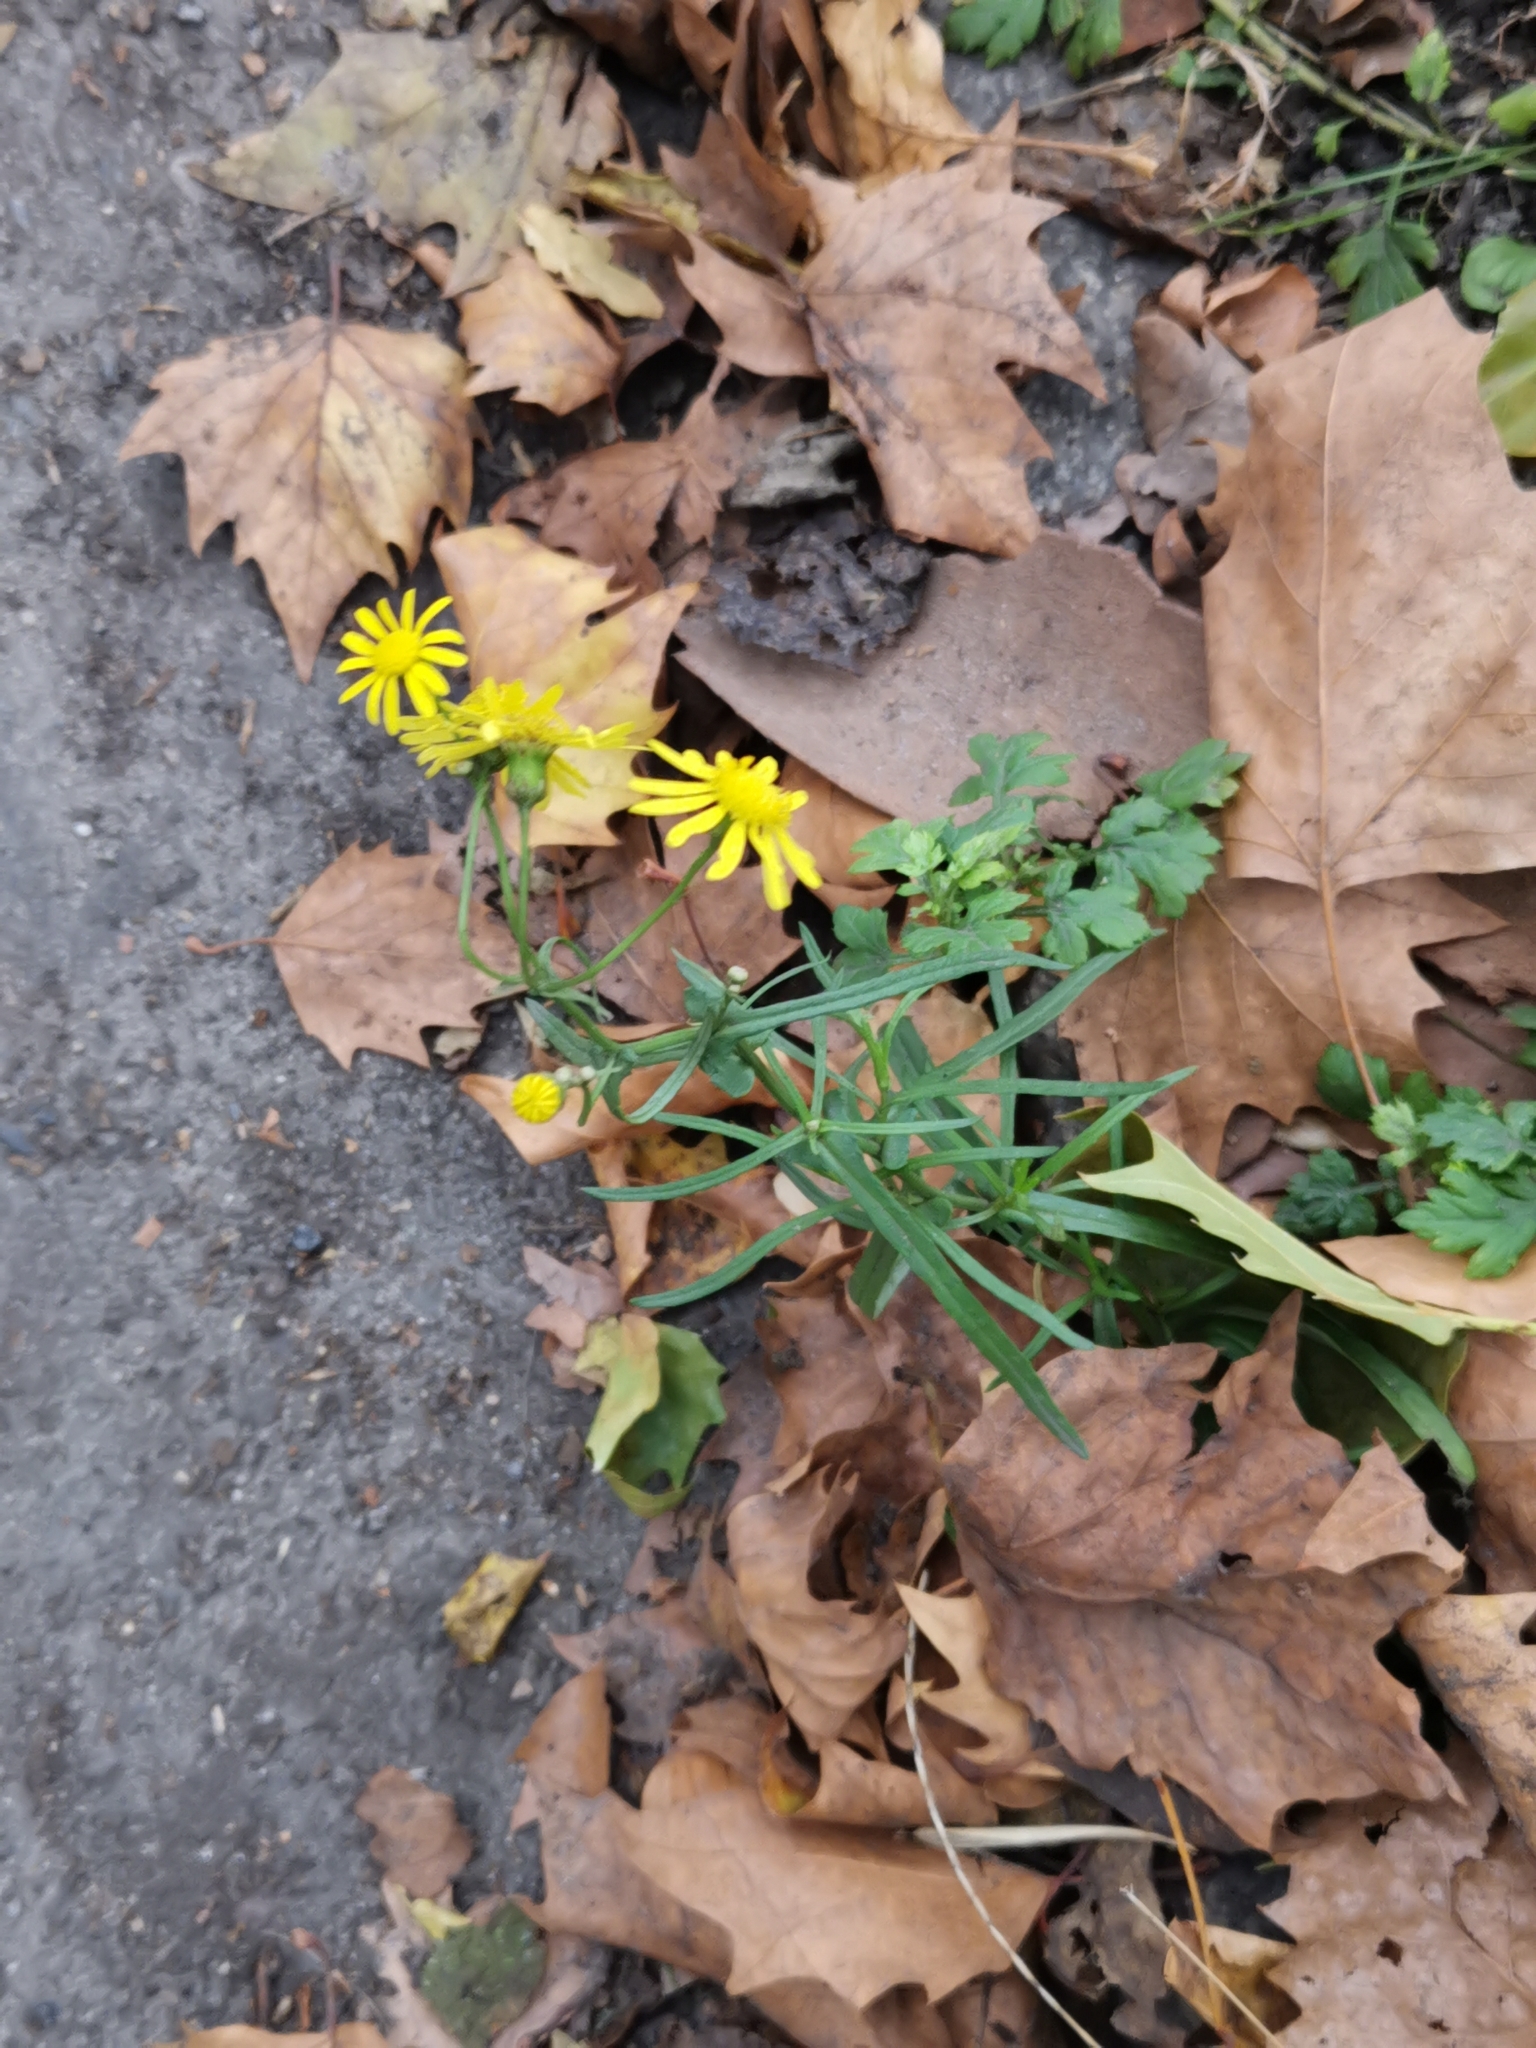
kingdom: Plantae
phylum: Tracheophyta
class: Magnoliopsida
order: Asterales
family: Asteraceae
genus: Senecio
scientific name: Senecio inaequidens
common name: Narrow-leaved ragwort
